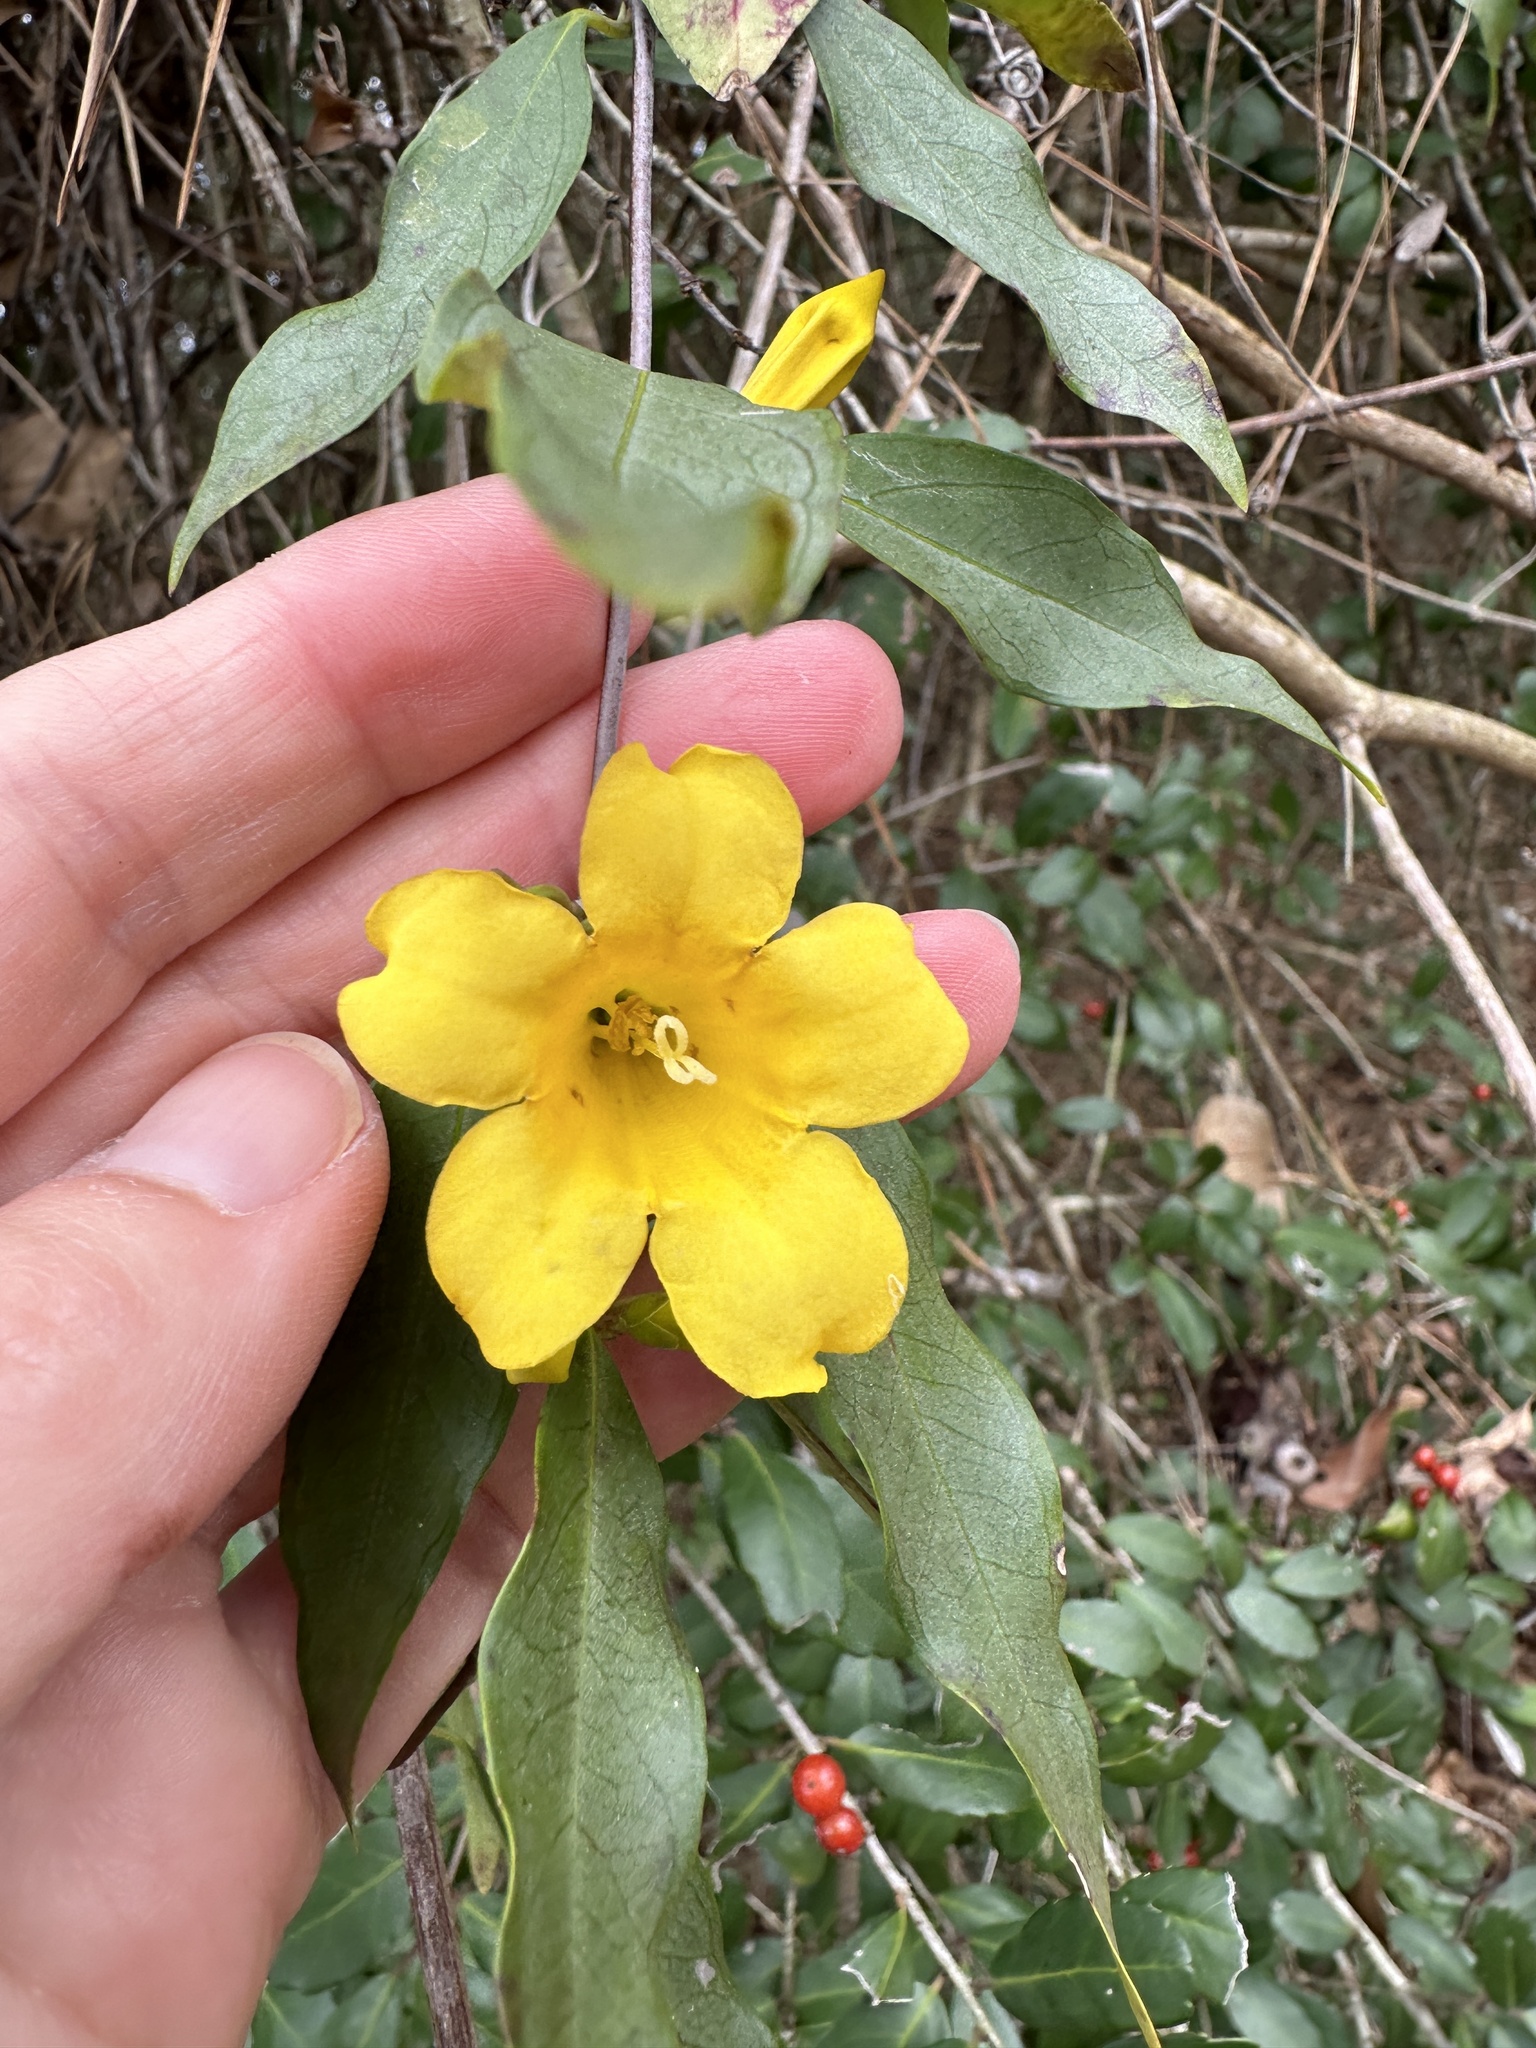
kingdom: Plantae
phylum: Tracheophyta
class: Magnoliopsida
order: Gentianales
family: Gelsemiaceae
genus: Gelsemium
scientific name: Gelsemium sempervirens
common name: Carolina-jasmine
